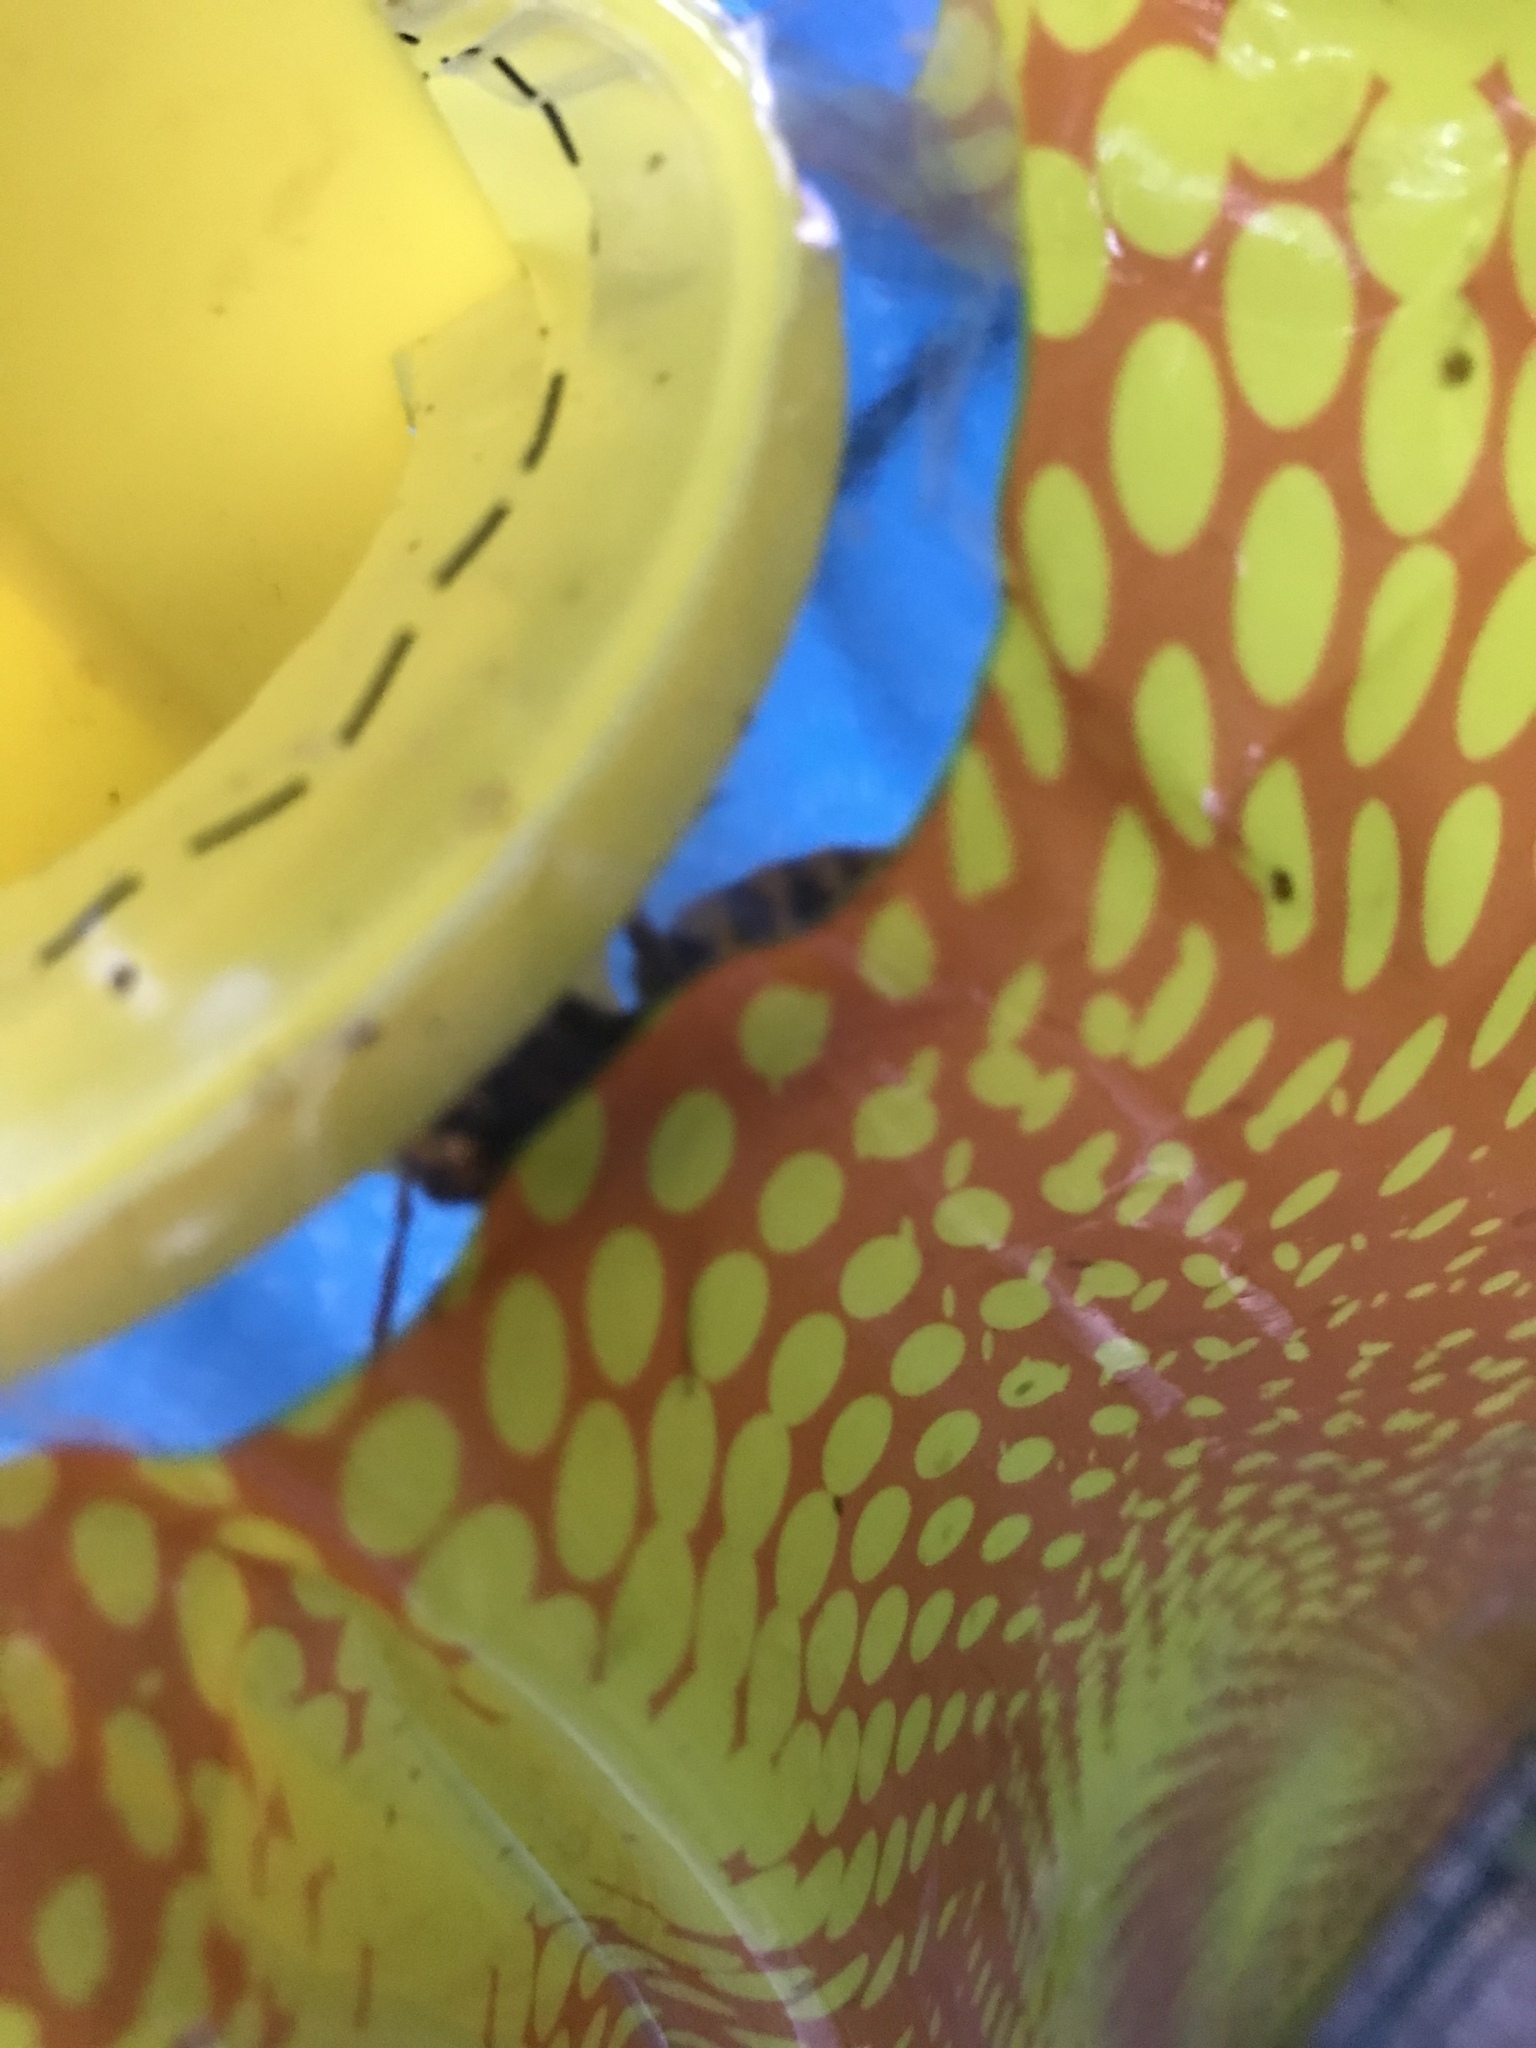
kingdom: Animalia
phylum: Arthropoda
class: Insecta
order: Hymenoptera
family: Vespidae
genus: Vespa
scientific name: Vespa crabro
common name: Hornet
